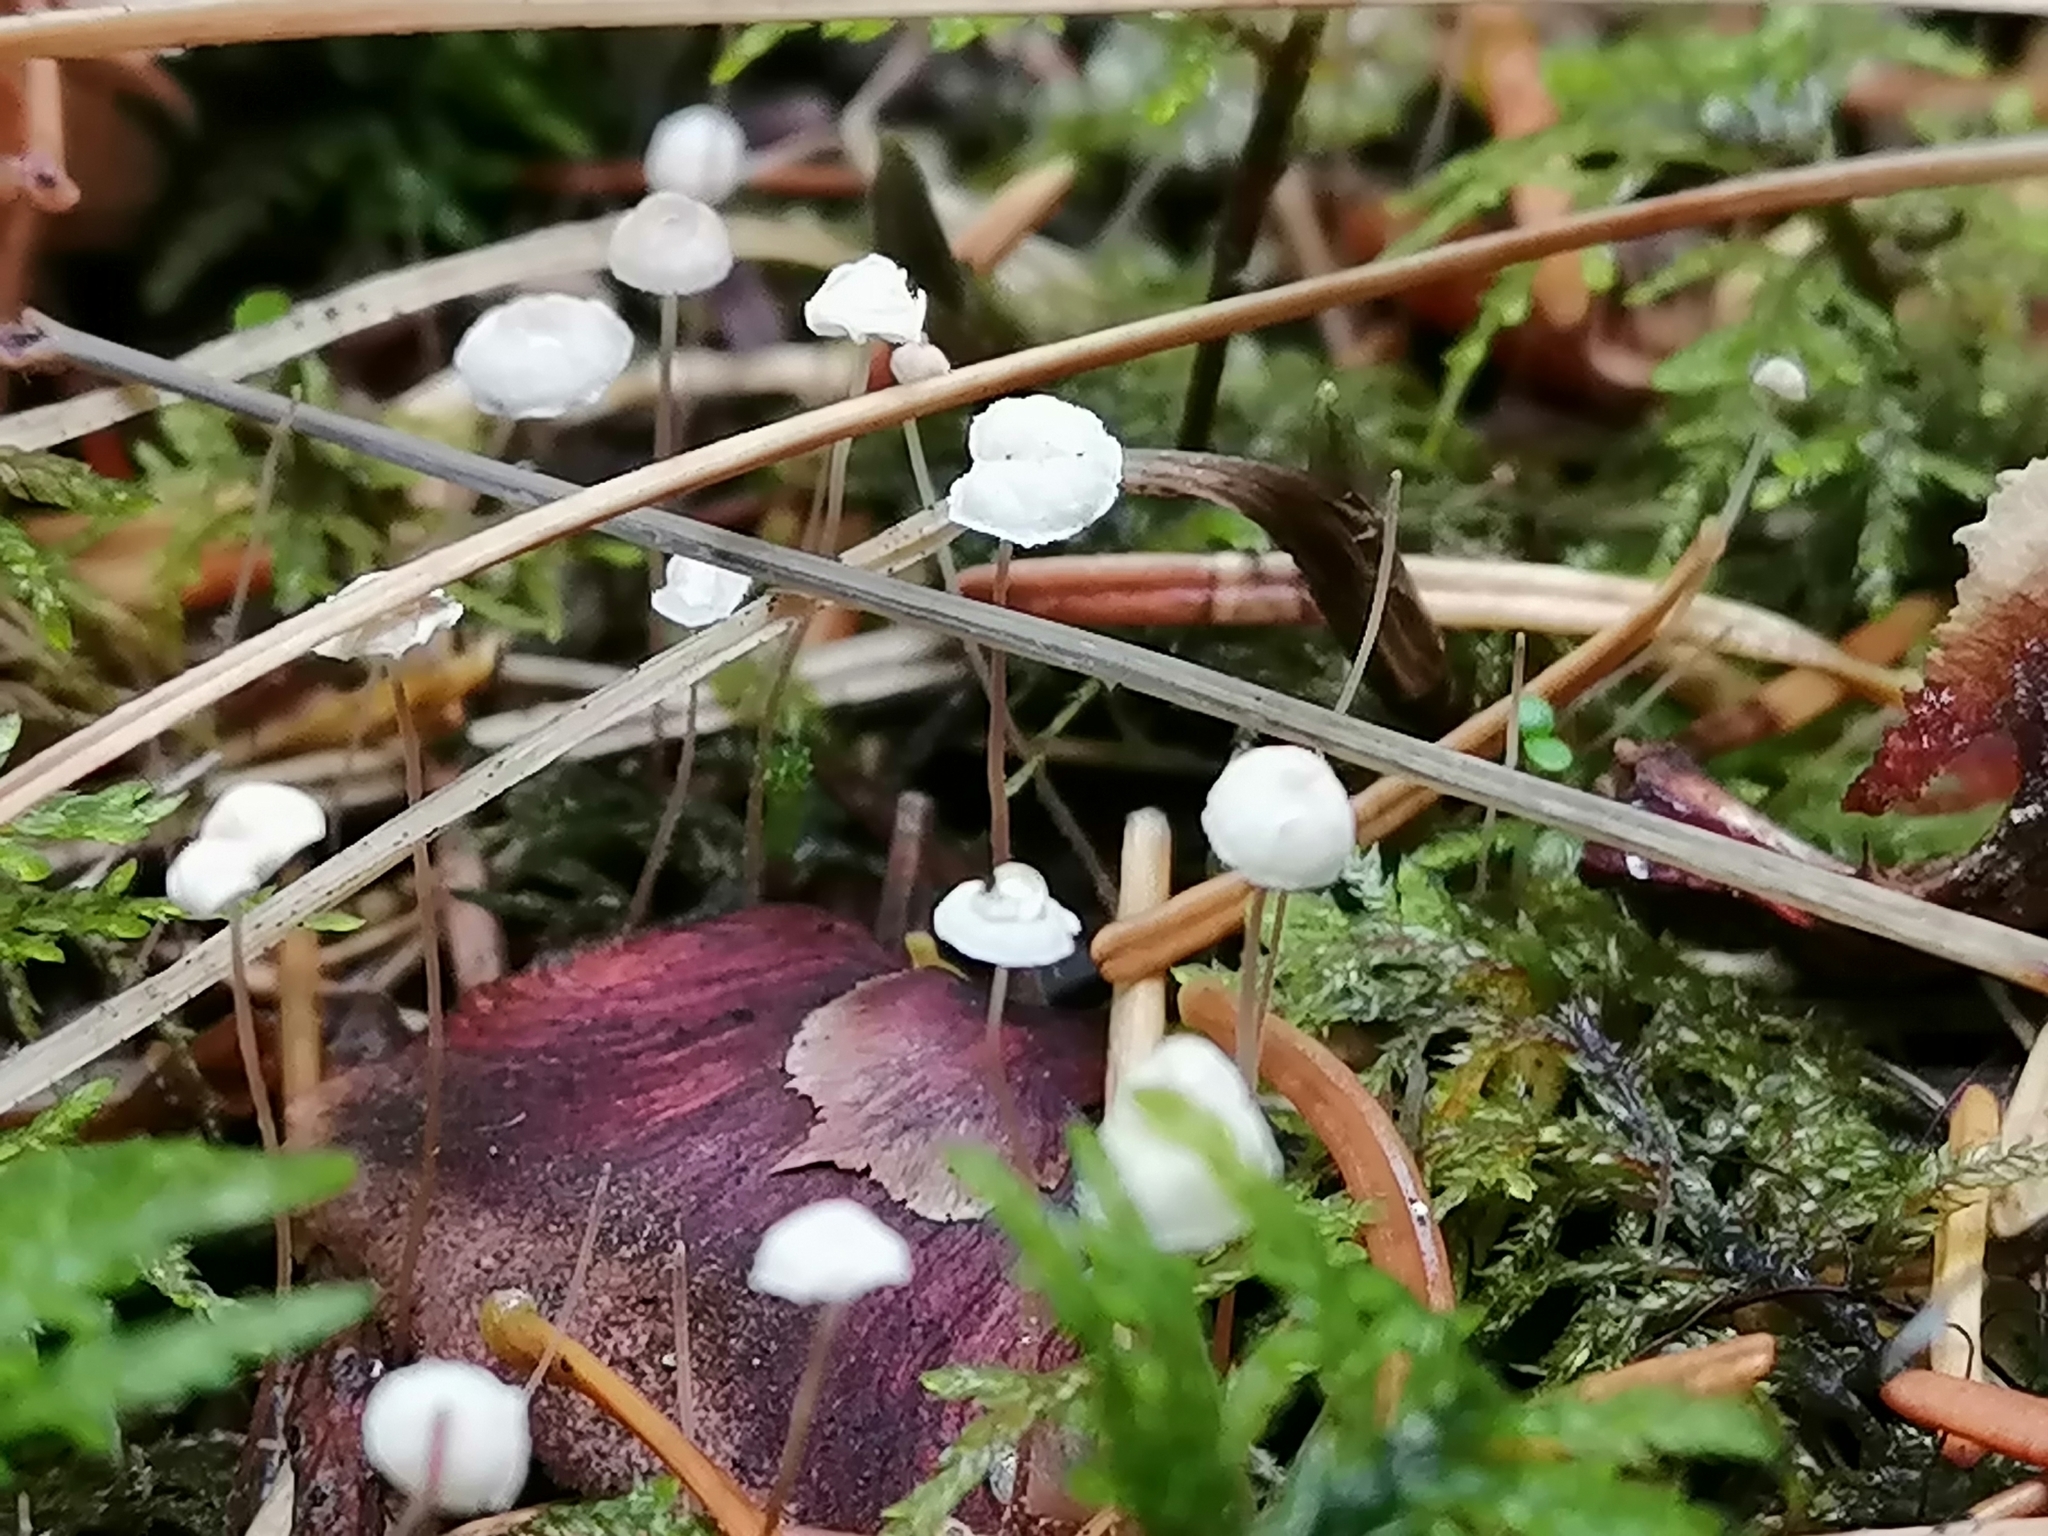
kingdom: Fungi
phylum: Basidiomycota
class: Agaricomycetes
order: Agaricales
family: Physalacriaceae
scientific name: Physalacriaceae
